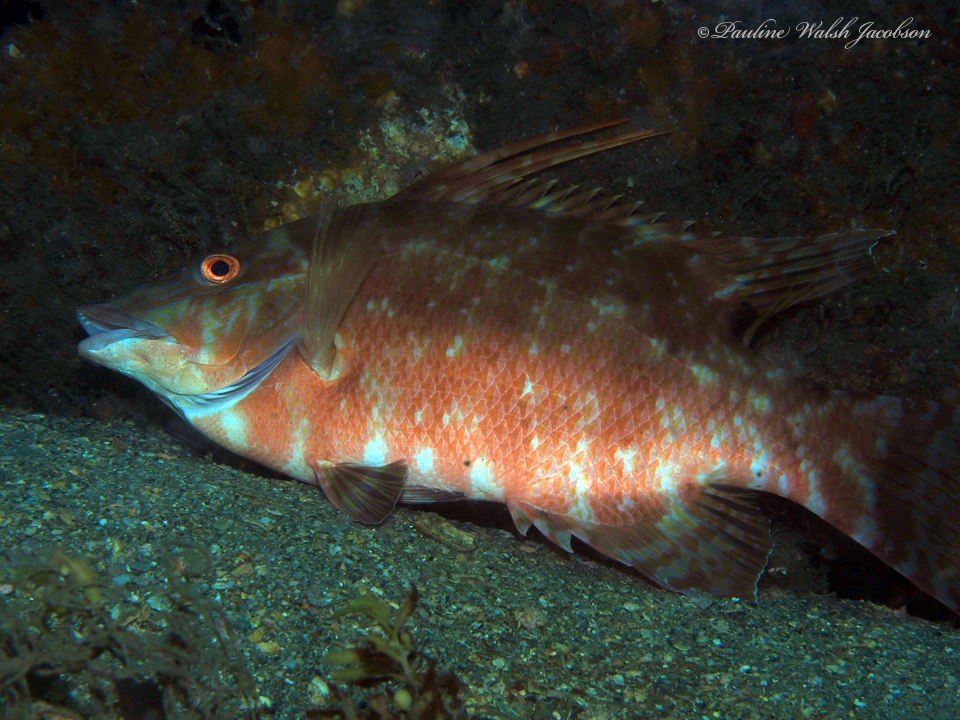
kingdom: Animalia
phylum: Chordata
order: Perciformes
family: Labridae
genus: Lachnolaimus
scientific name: Lachnolaimus maximus
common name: Hogfish
